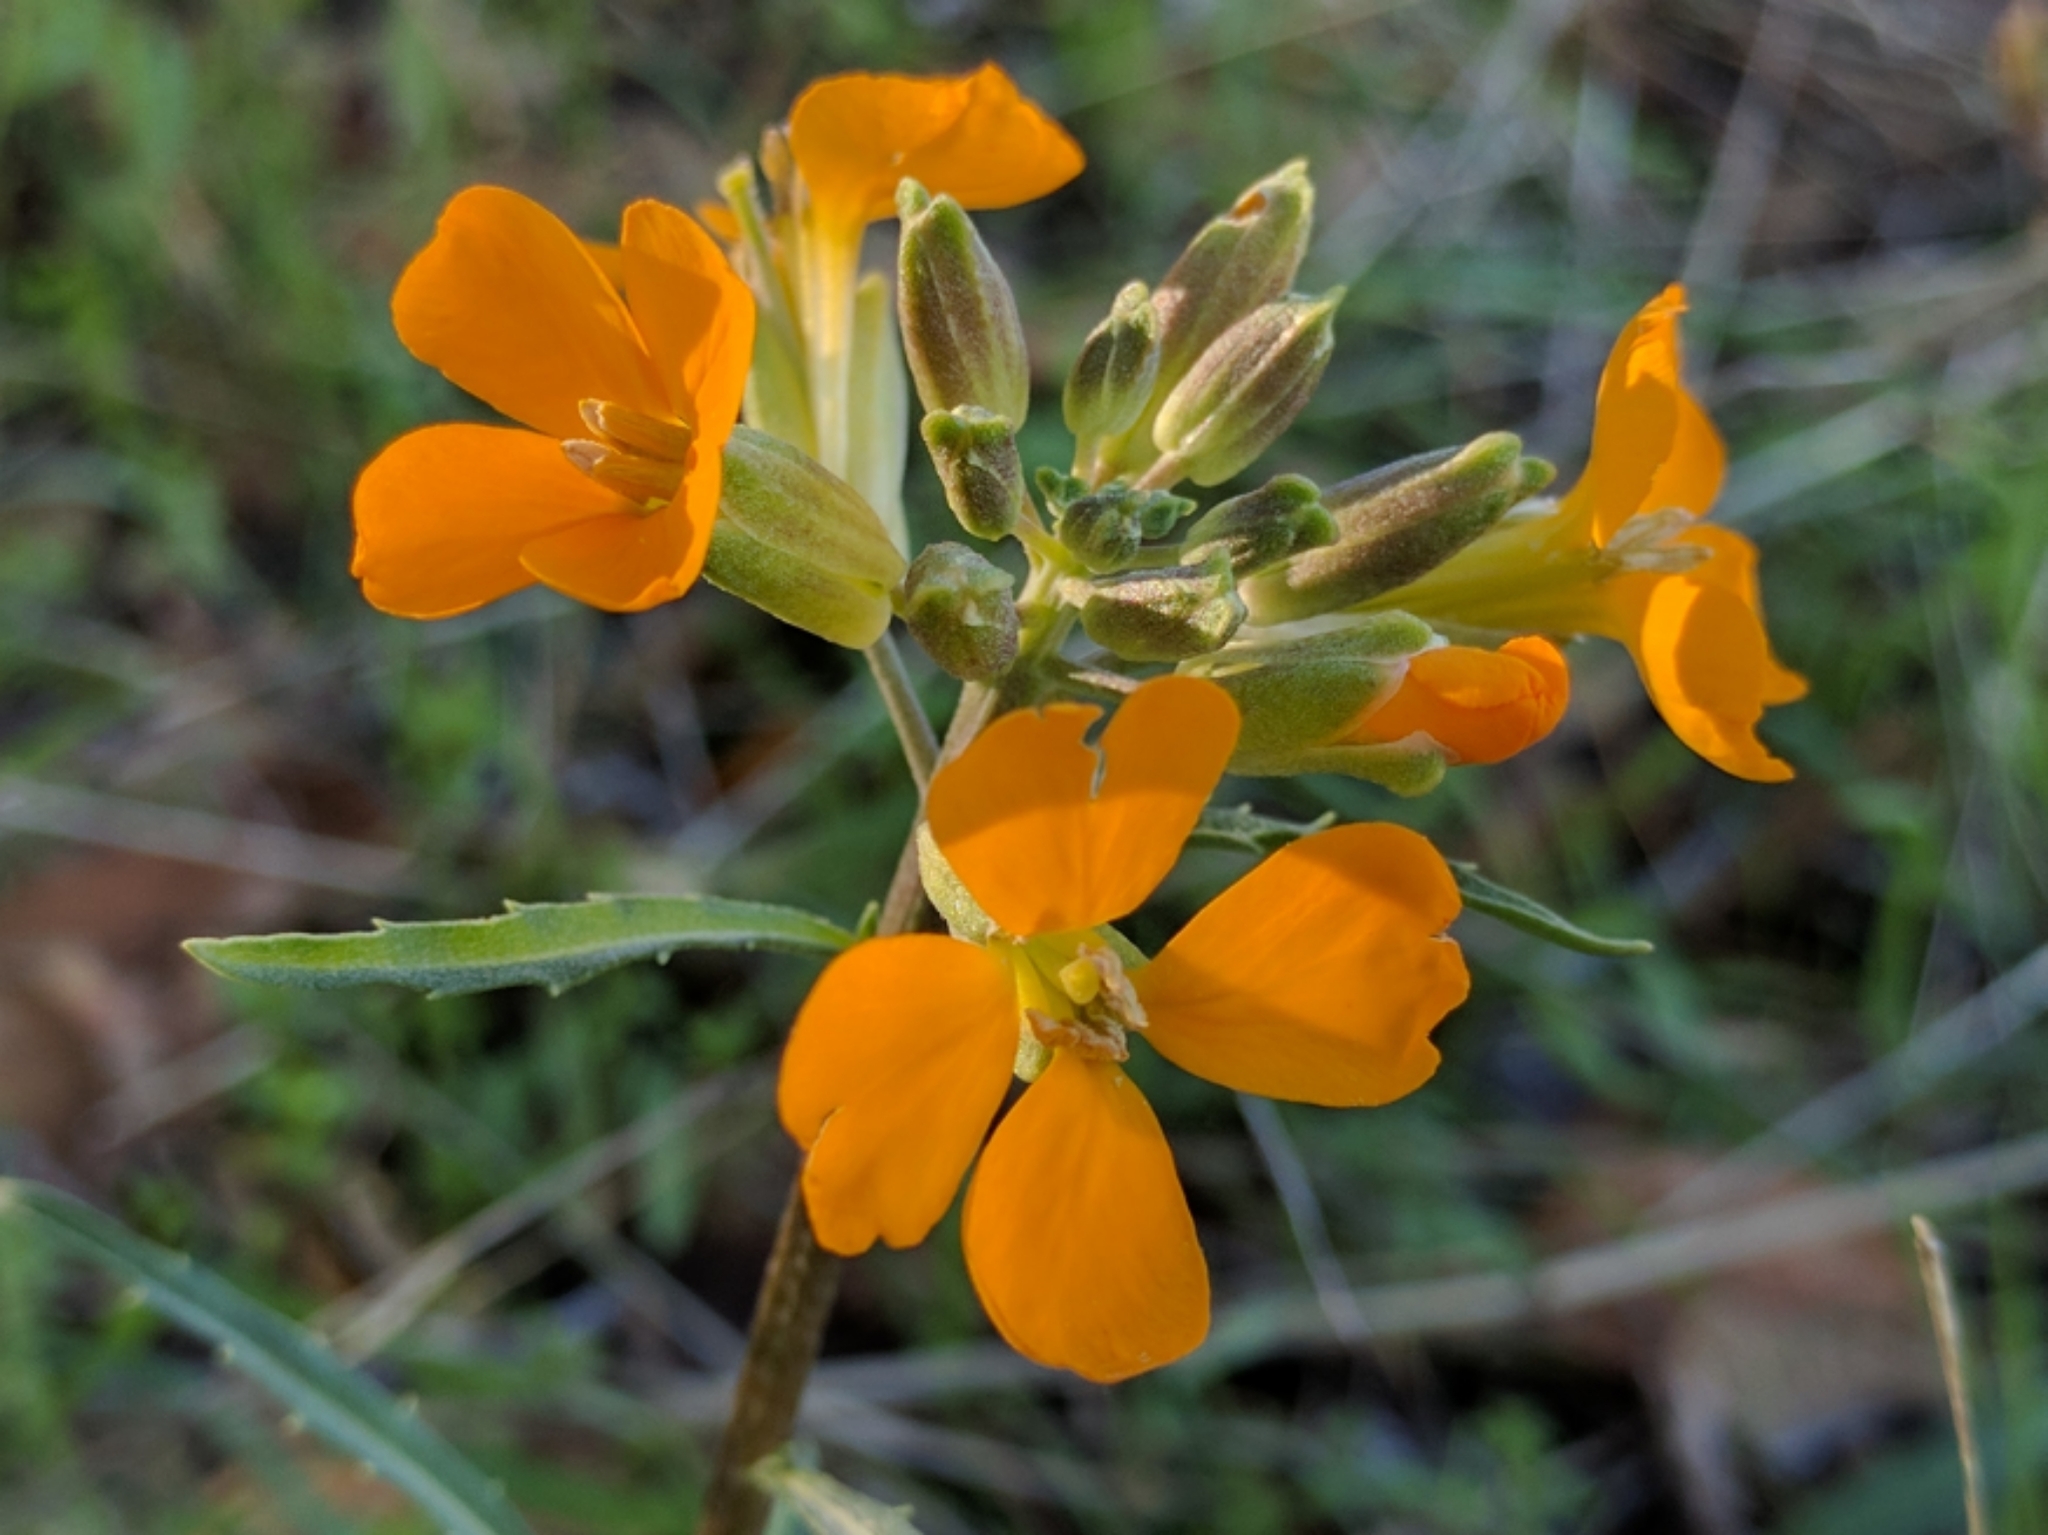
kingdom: Plantae
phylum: Tracheophyta
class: Magnoliopsida
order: Brassicales
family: Brassicaceae
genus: Erysimum
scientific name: Erysimum capitatum
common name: Western wallflower
